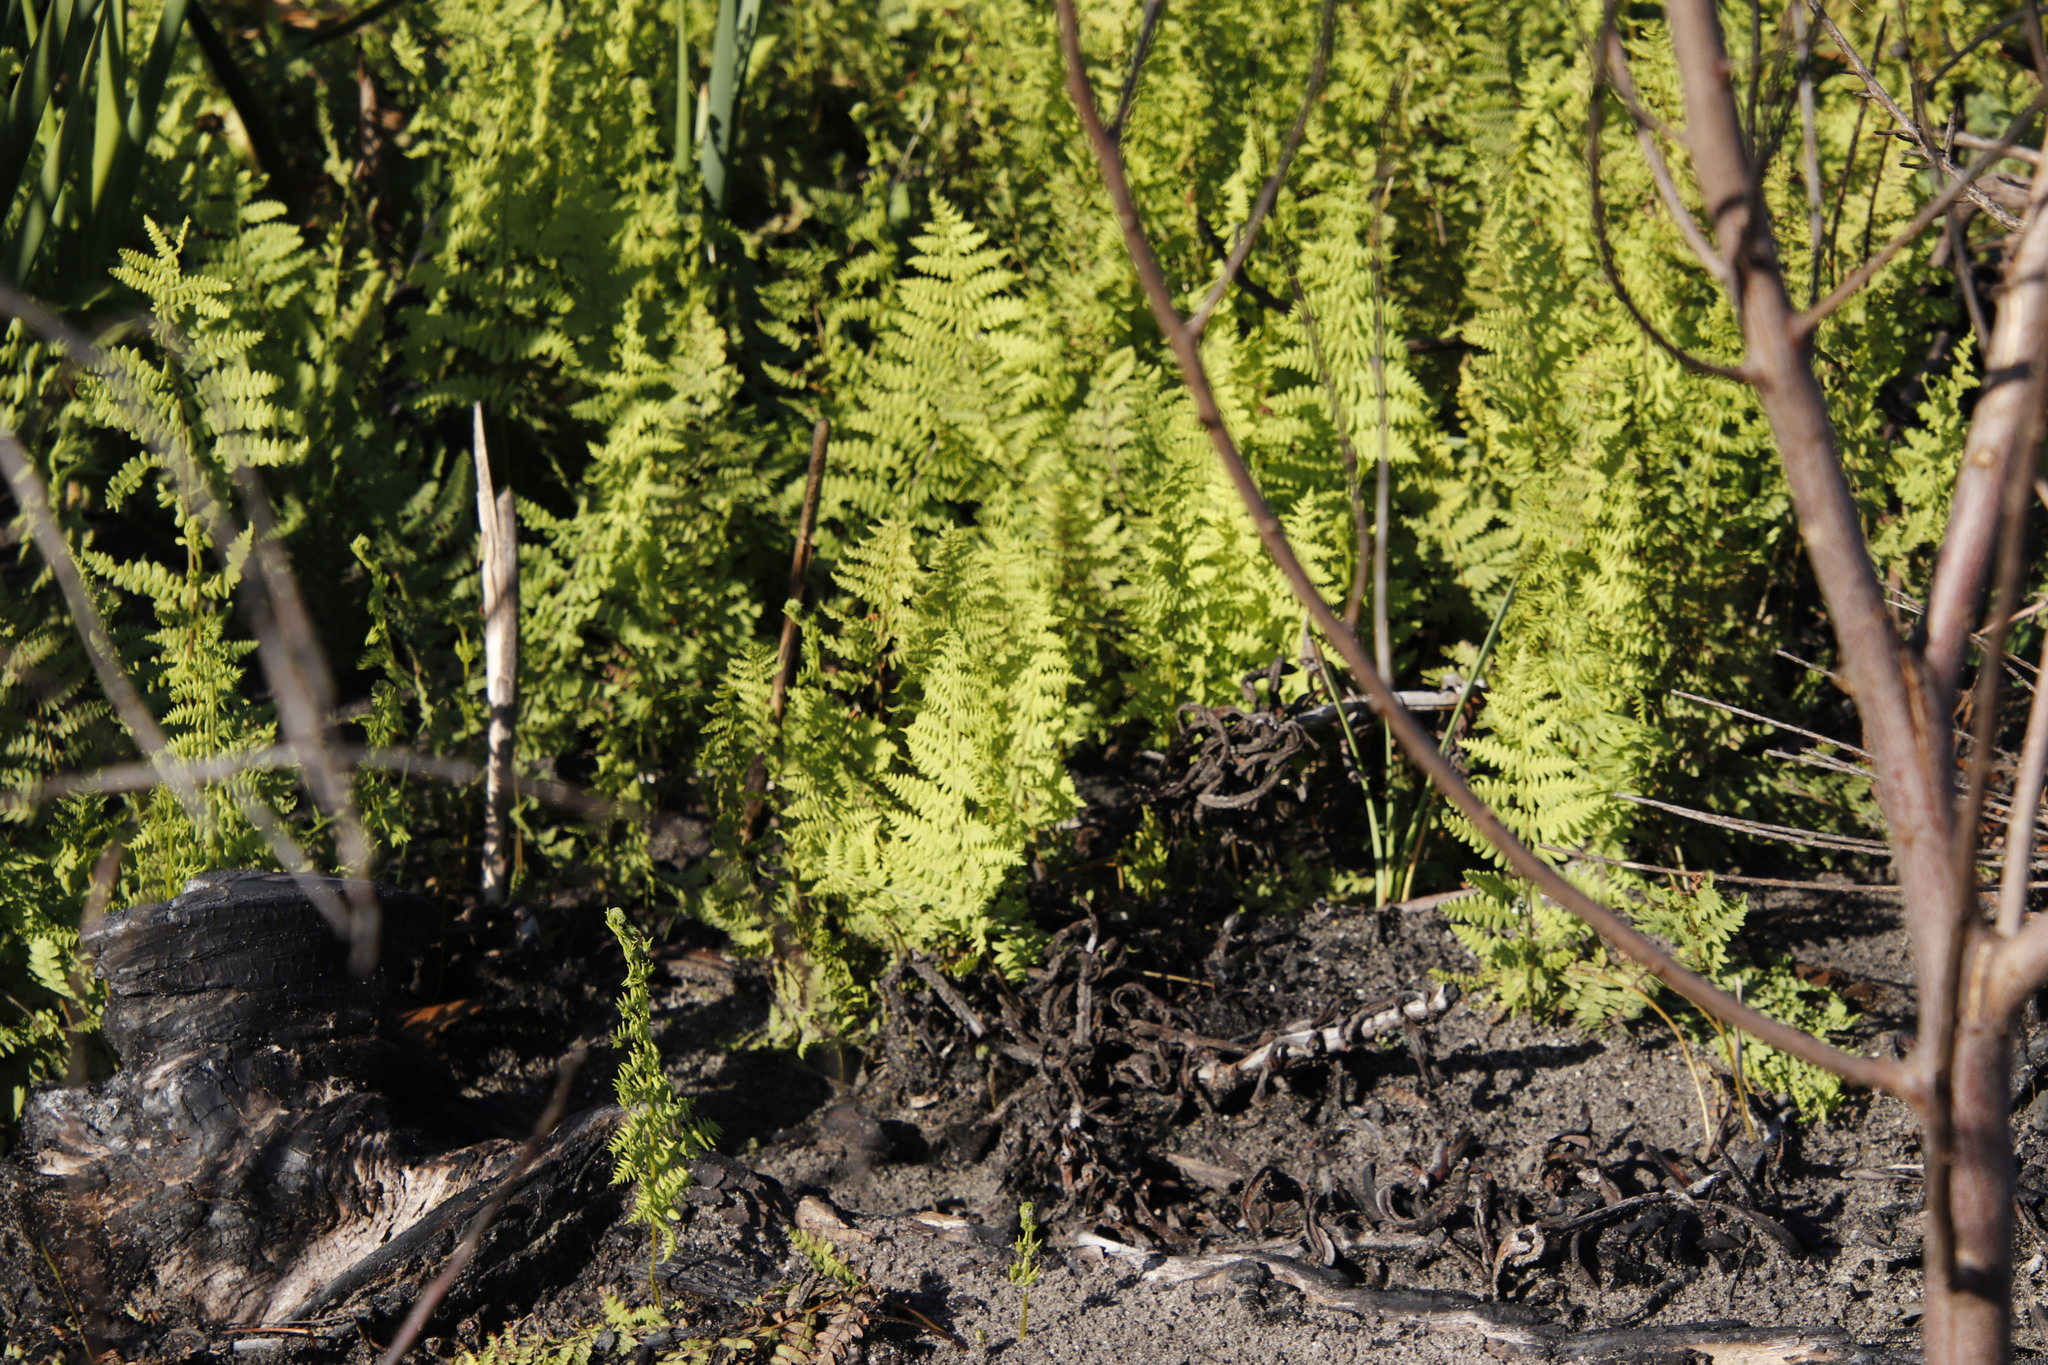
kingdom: Plantae
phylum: Tracheophyta
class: Polypodiopsida
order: Polypodiales
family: Thelypteridaceae
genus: Thelypteris
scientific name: Thelypteris confluens
